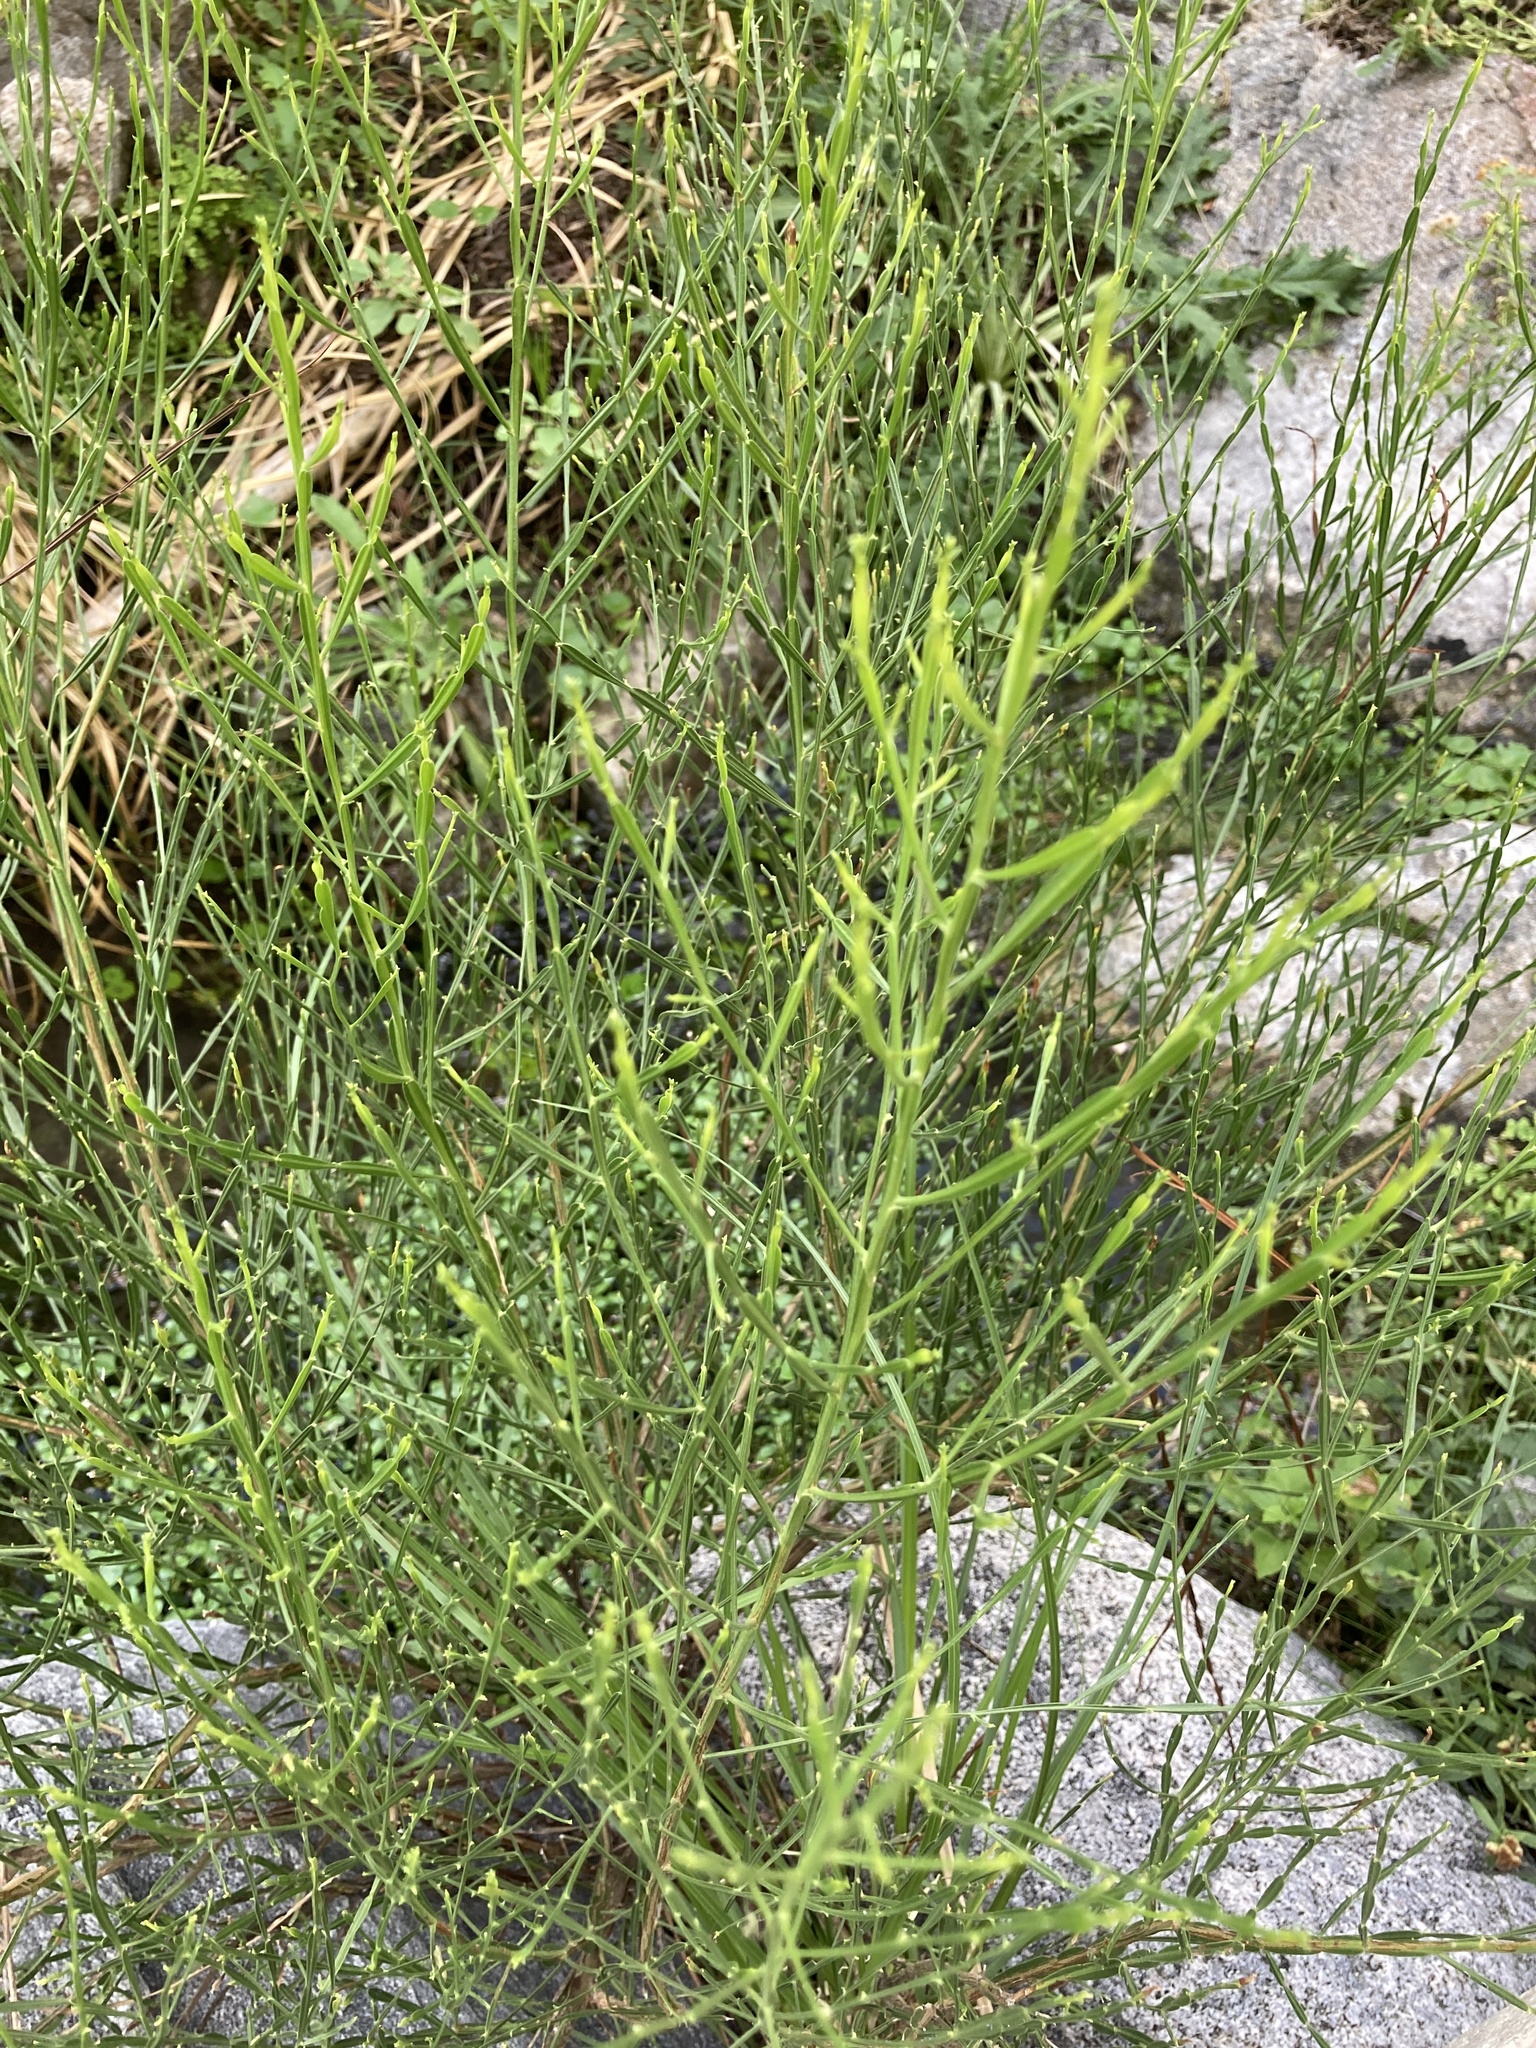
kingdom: Plantae
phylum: Tracheophyta
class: Magnoliopsida
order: Asterales
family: Asteraceae
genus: Baccharis
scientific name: Baccharis articulata
